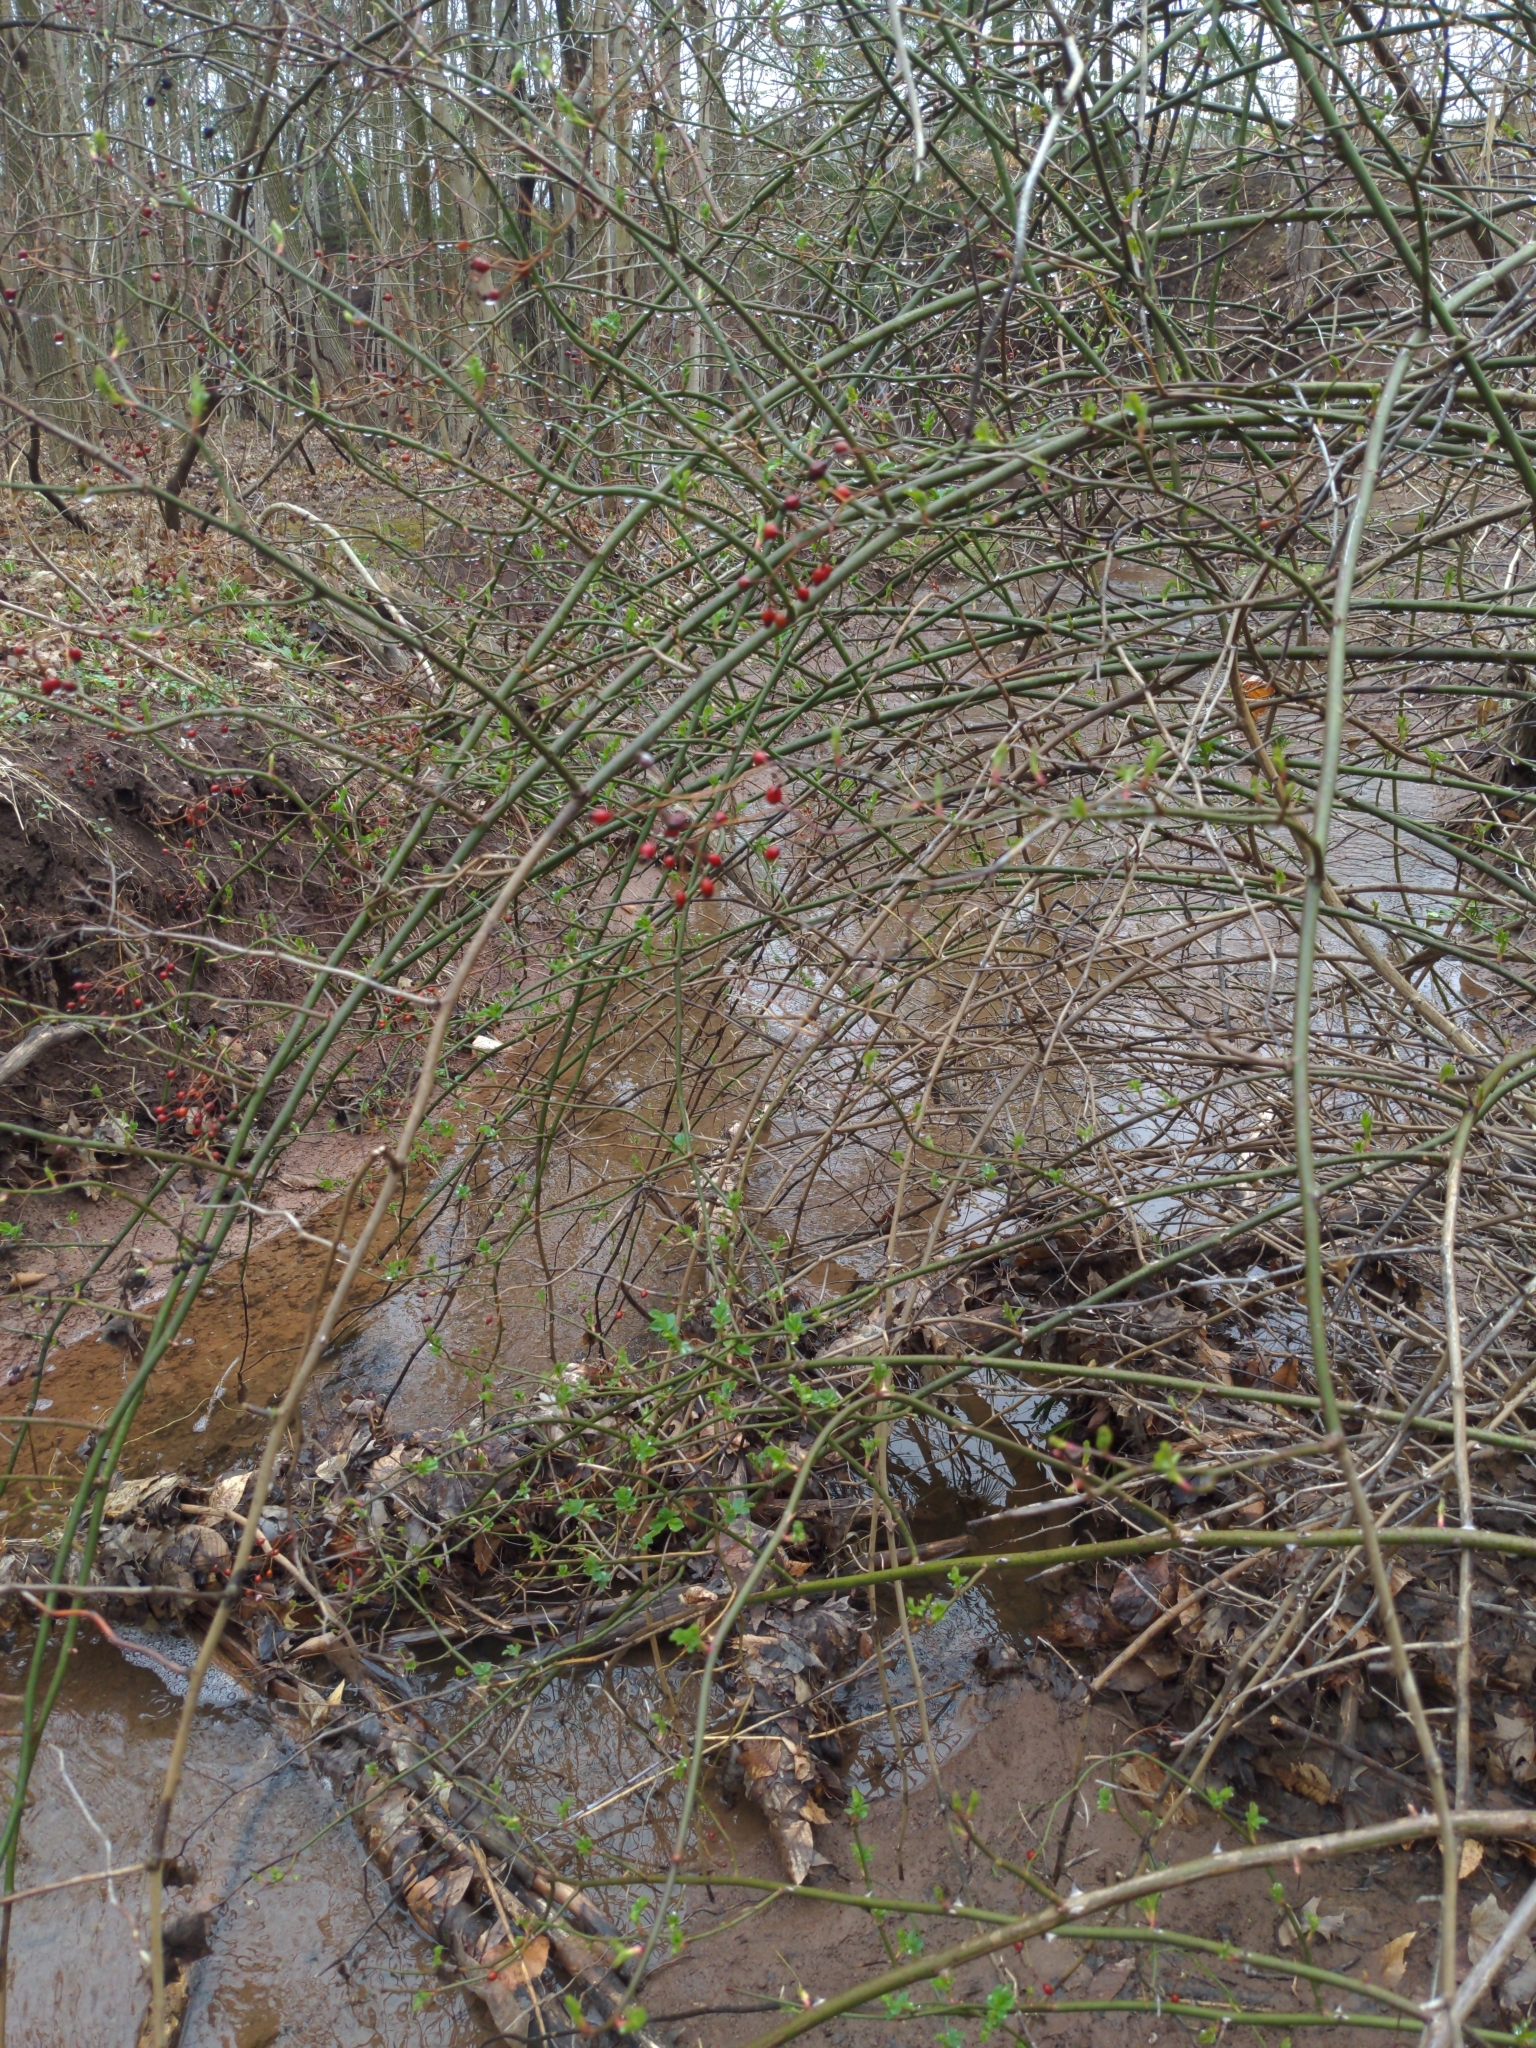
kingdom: Plantae
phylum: Tracheophyta
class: Magnoliopsida
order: Rosales
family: Rosaceae
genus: Rosa
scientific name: Rosa multiflora
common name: Multiflora rose
